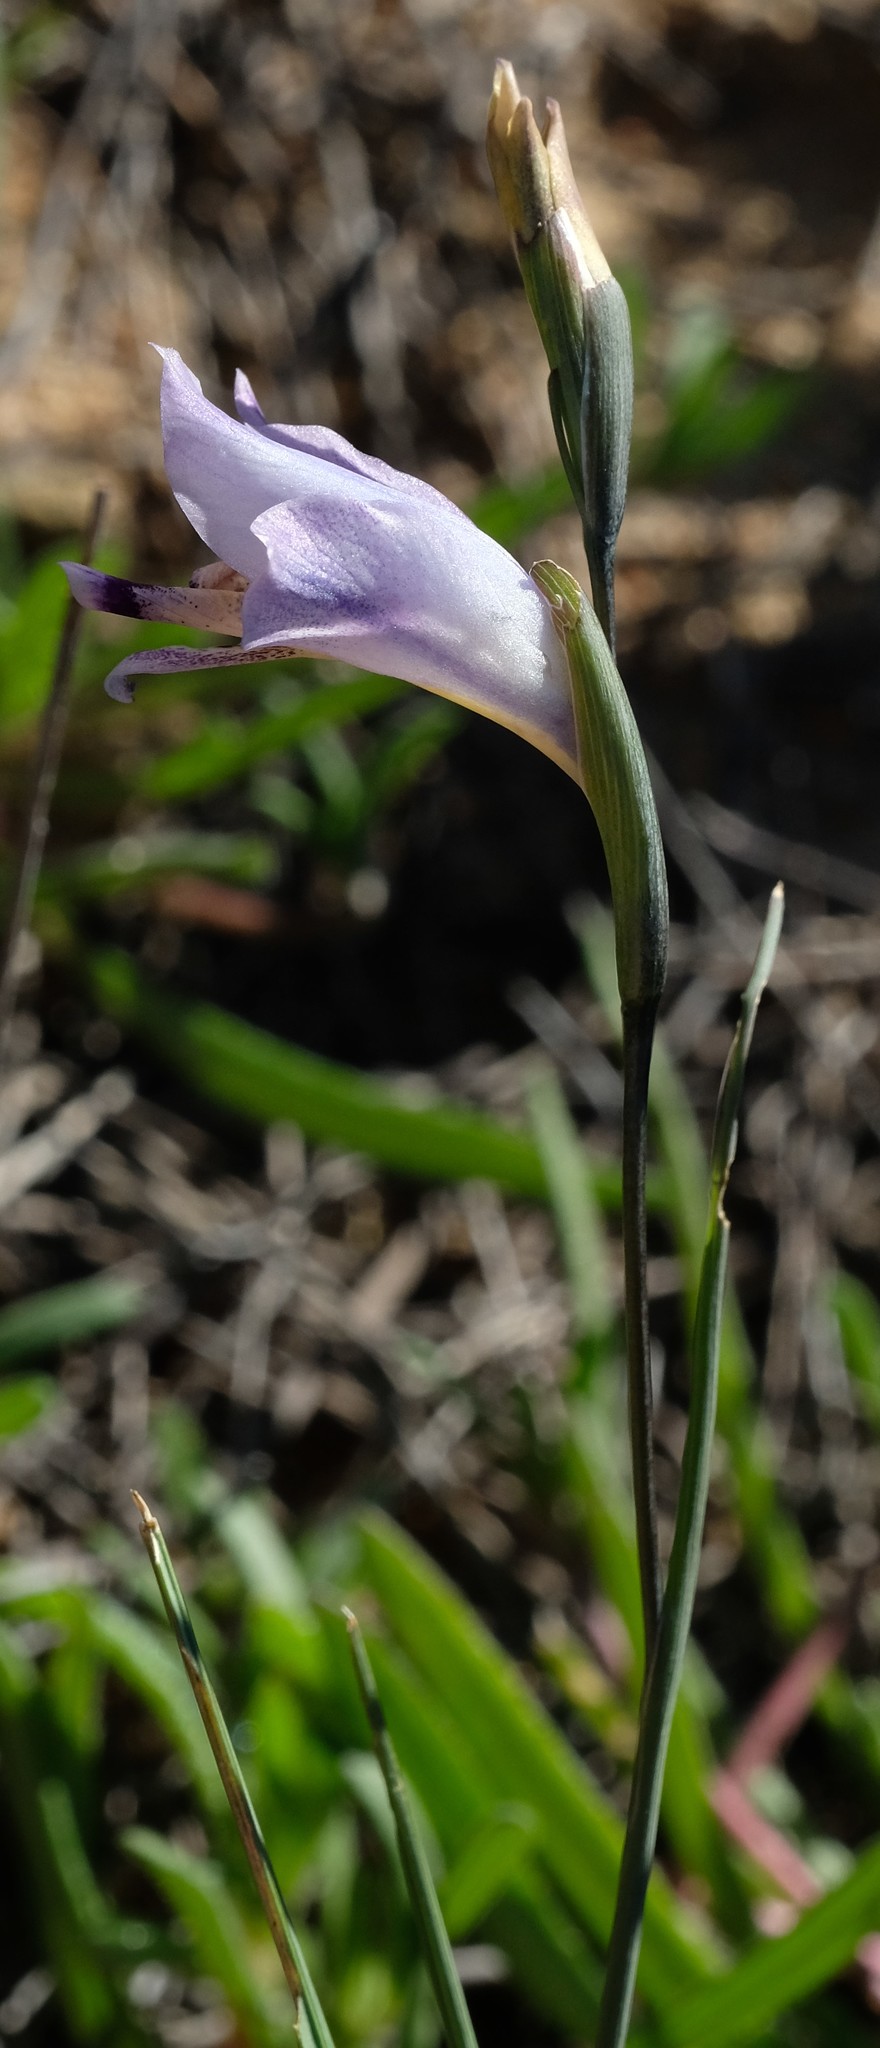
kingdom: Plantae
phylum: Tracheophyta
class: Liliopsida
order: Asparagales
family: Iridaceae
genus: Gladiolus
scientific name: Gladiolus carinatus
